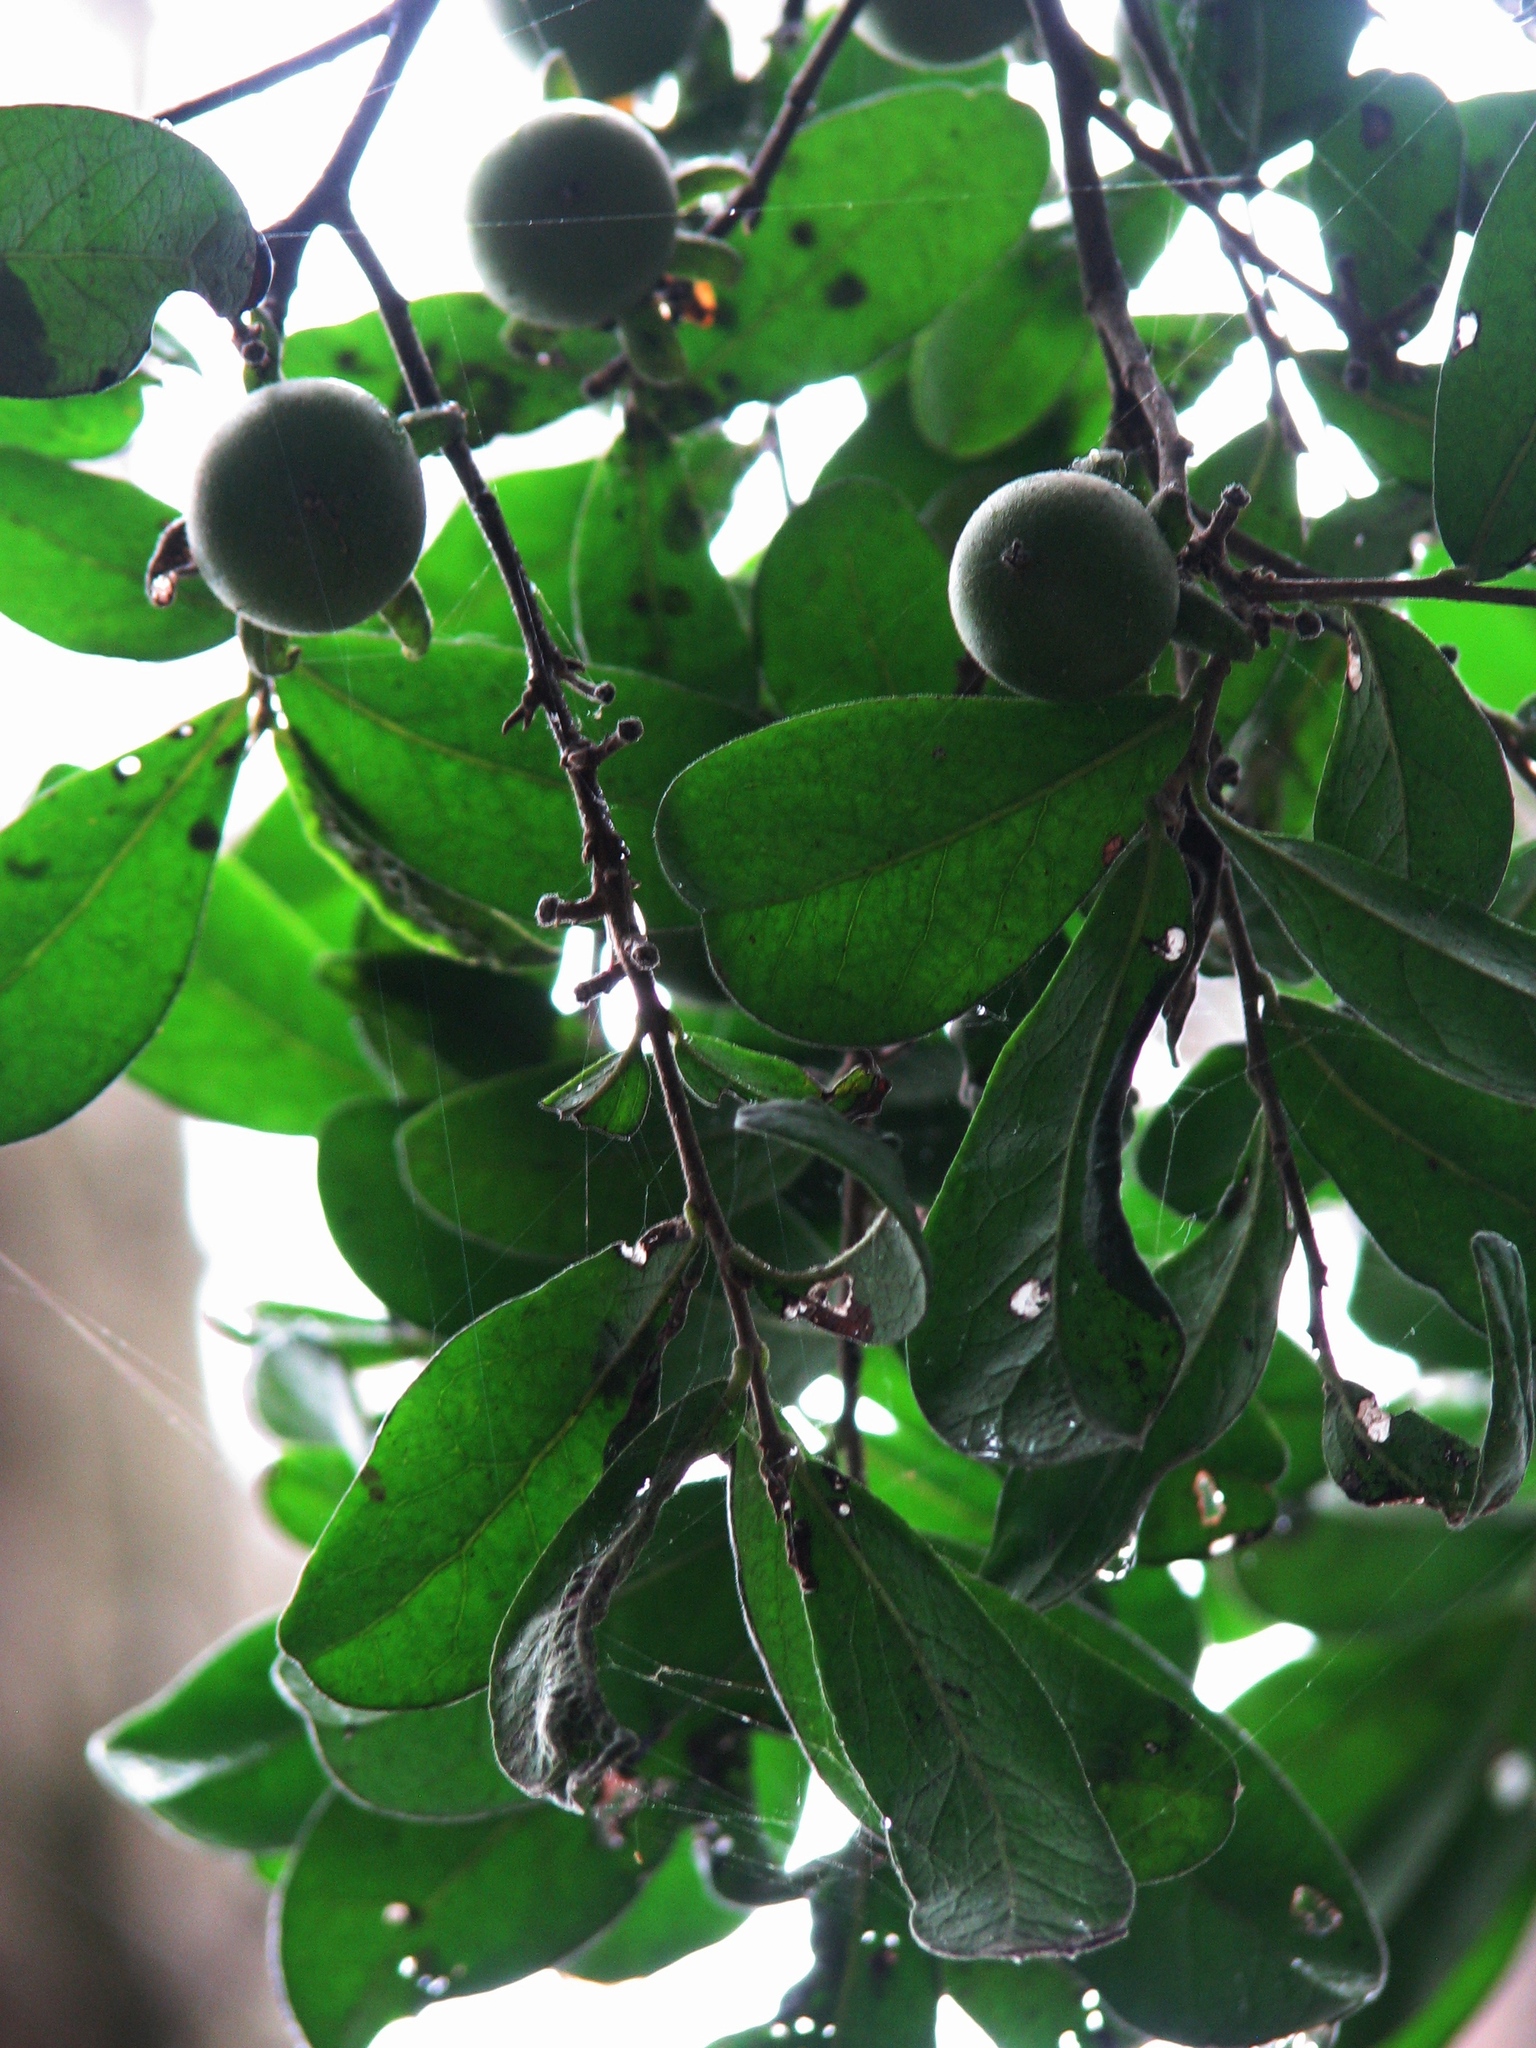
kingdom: Plantae
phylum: Tracheophyta
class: Magnoliopsida
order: Ericales
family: Ebenaceae
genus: Diospyros
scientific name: Diospyros texana
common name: Texas persimmon
